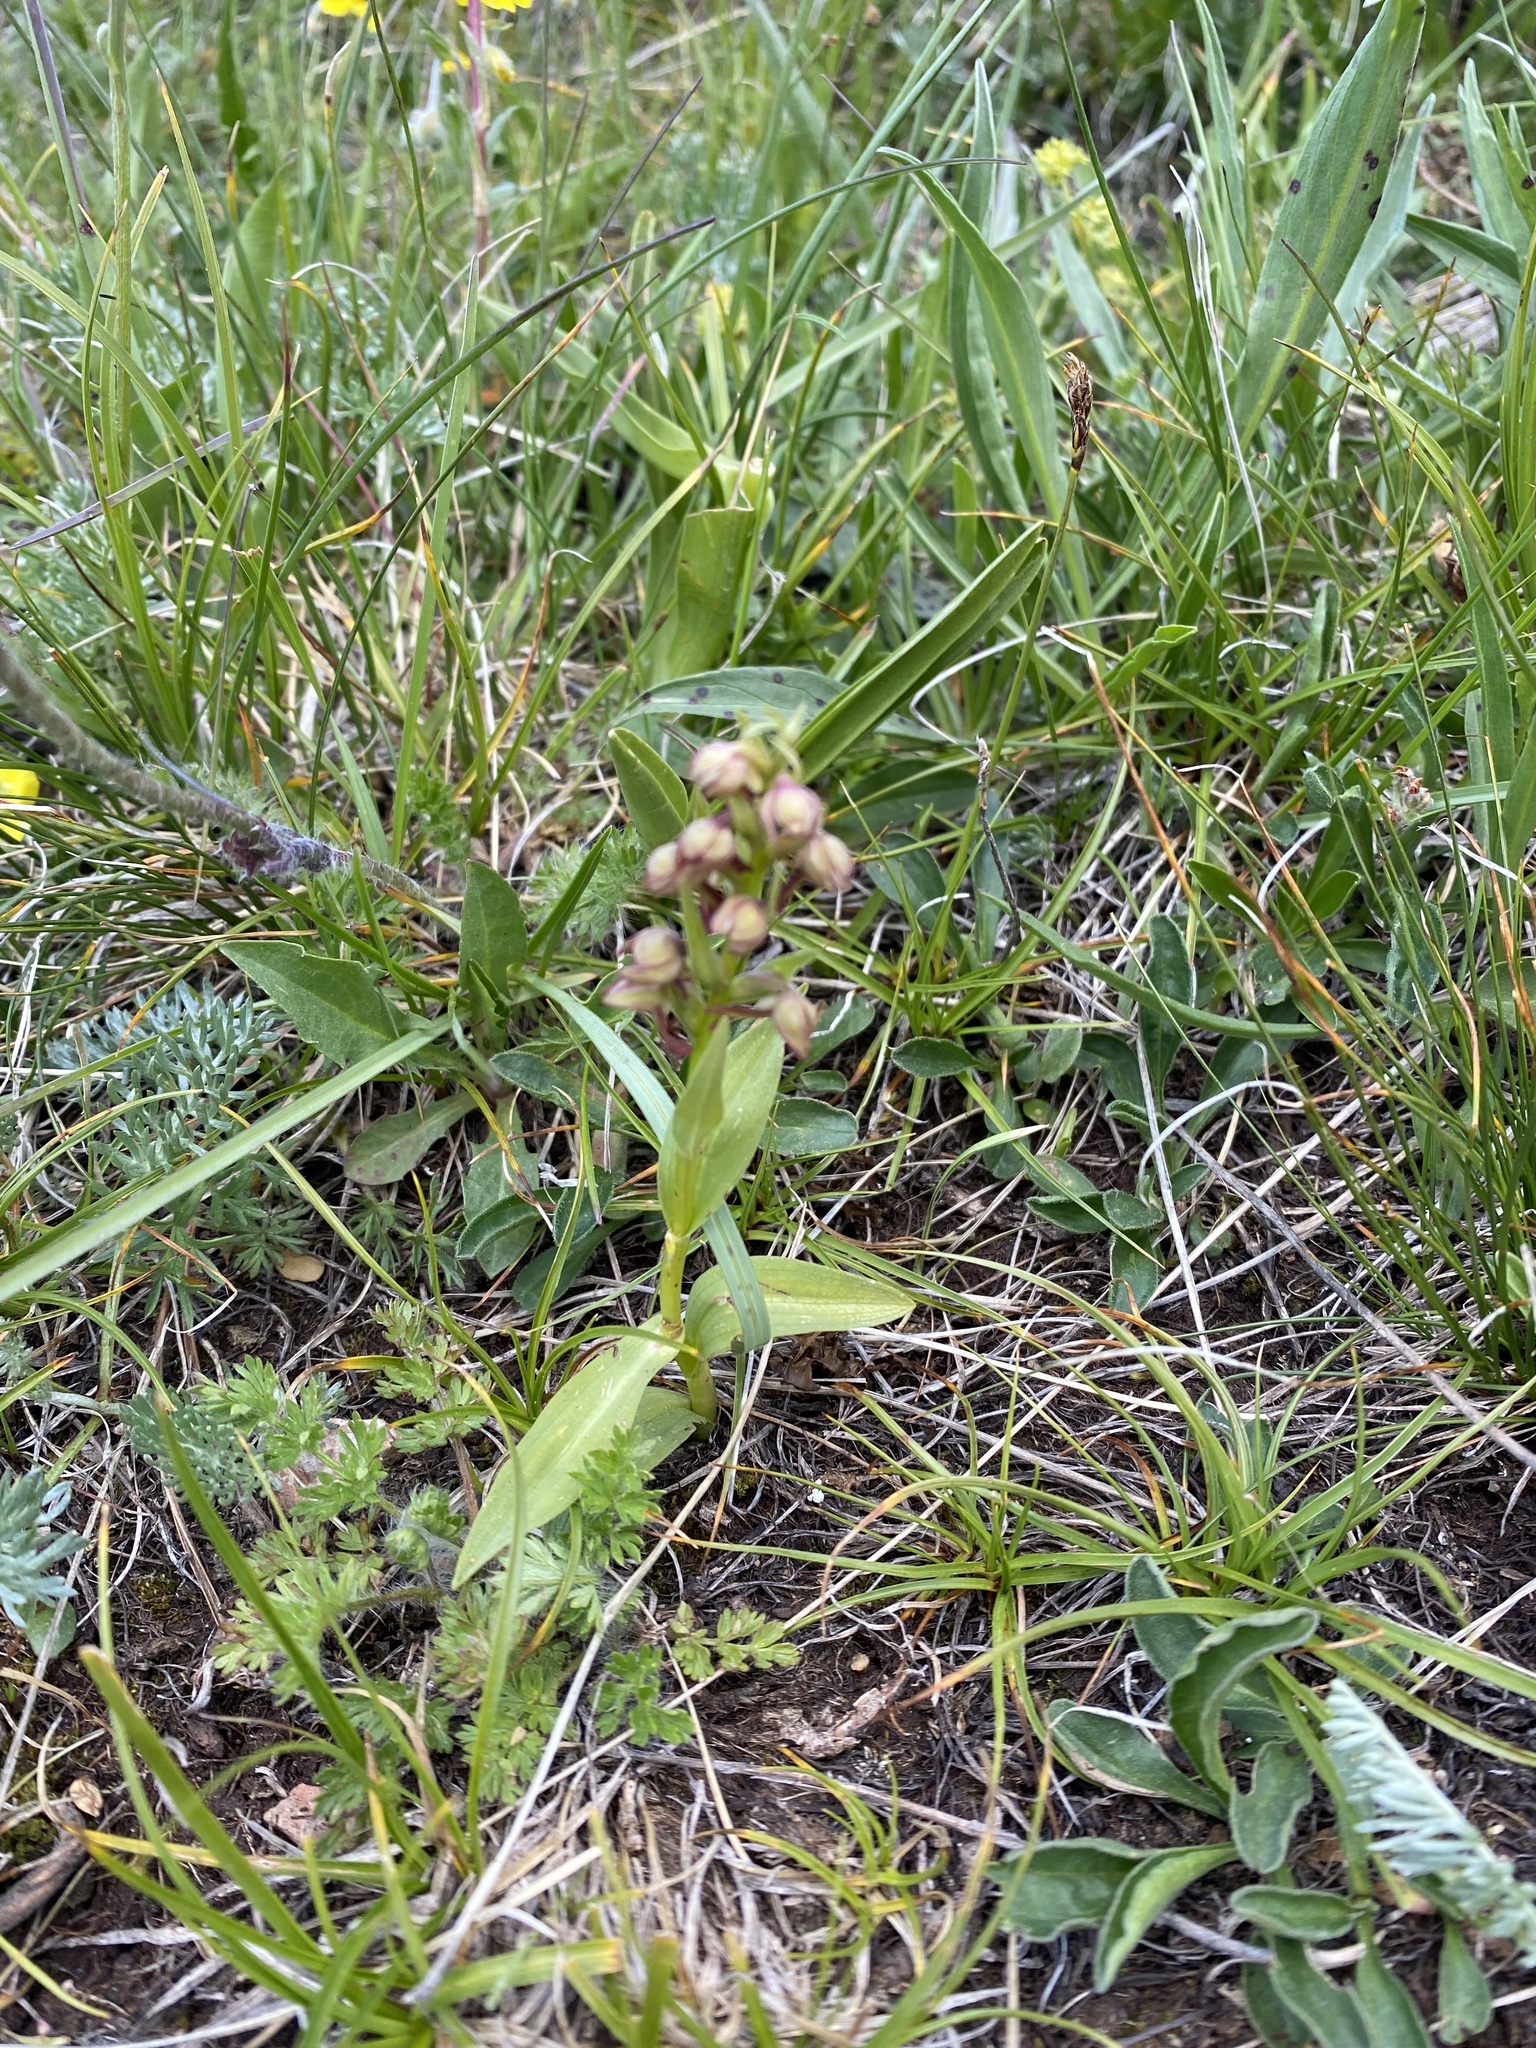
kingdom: Plantae
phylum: Tracheophyta
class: Liliopsida
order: Asparagales
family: Orchidaceae
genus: Dactylorhiza
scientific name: Dactylorhiza viridis
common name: Longbract frog orchid
